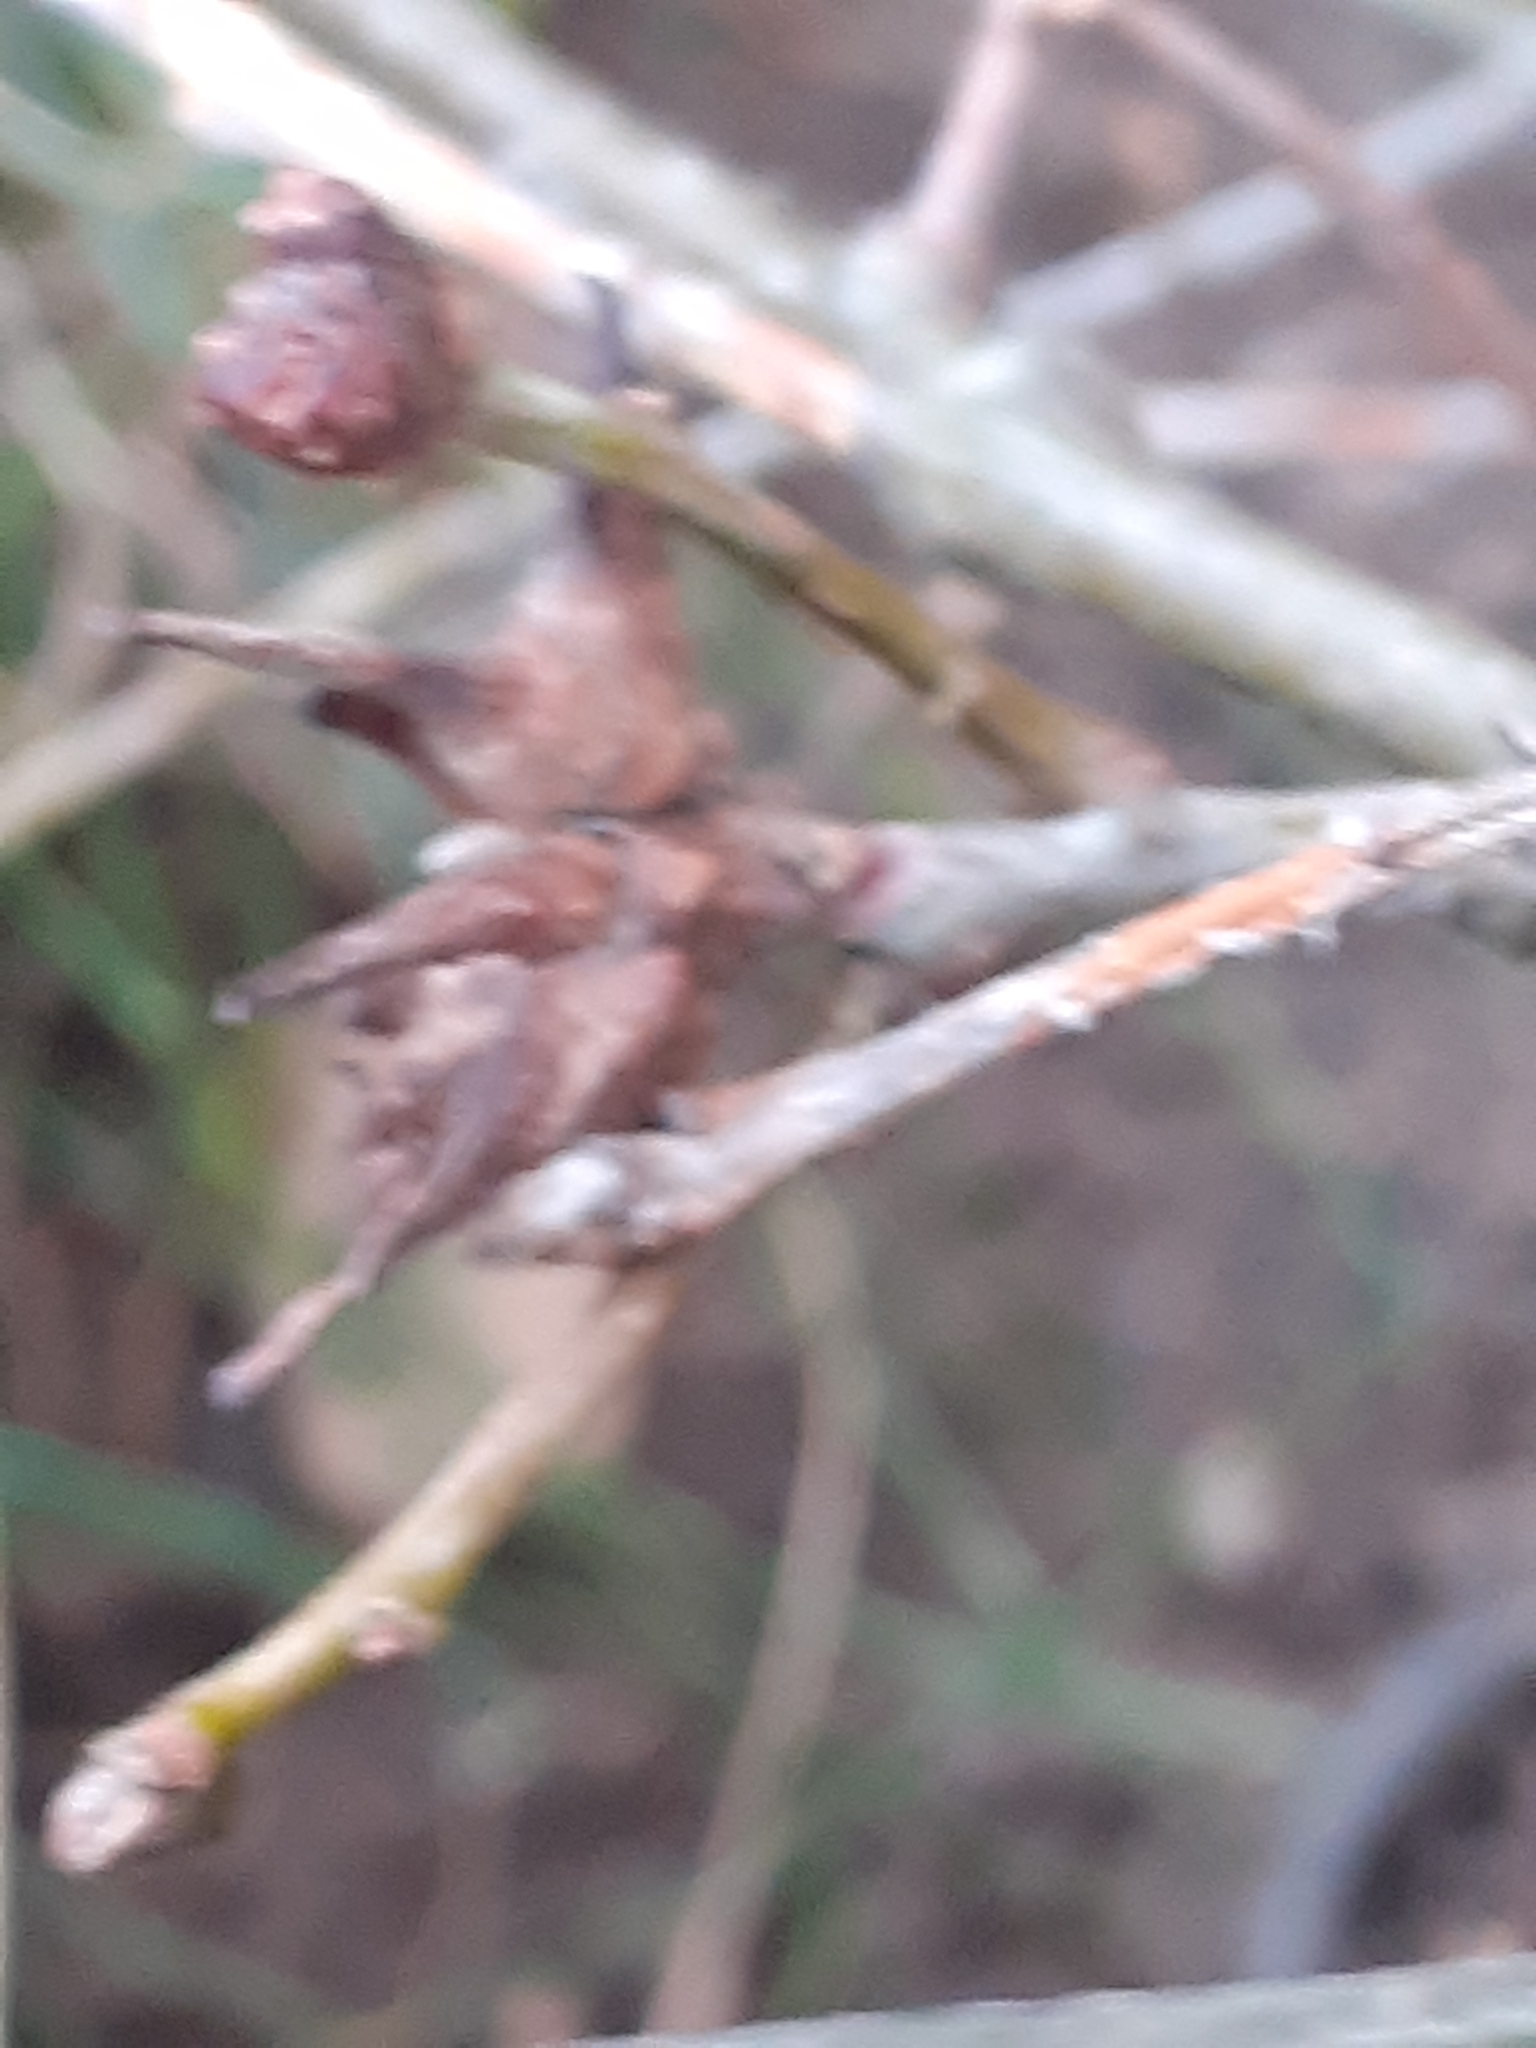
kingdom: Animalia
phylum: Arthropoda
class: Insecta
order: Hymenoptera
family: Cynipidae
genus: Andricus
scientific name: Andricus aries
